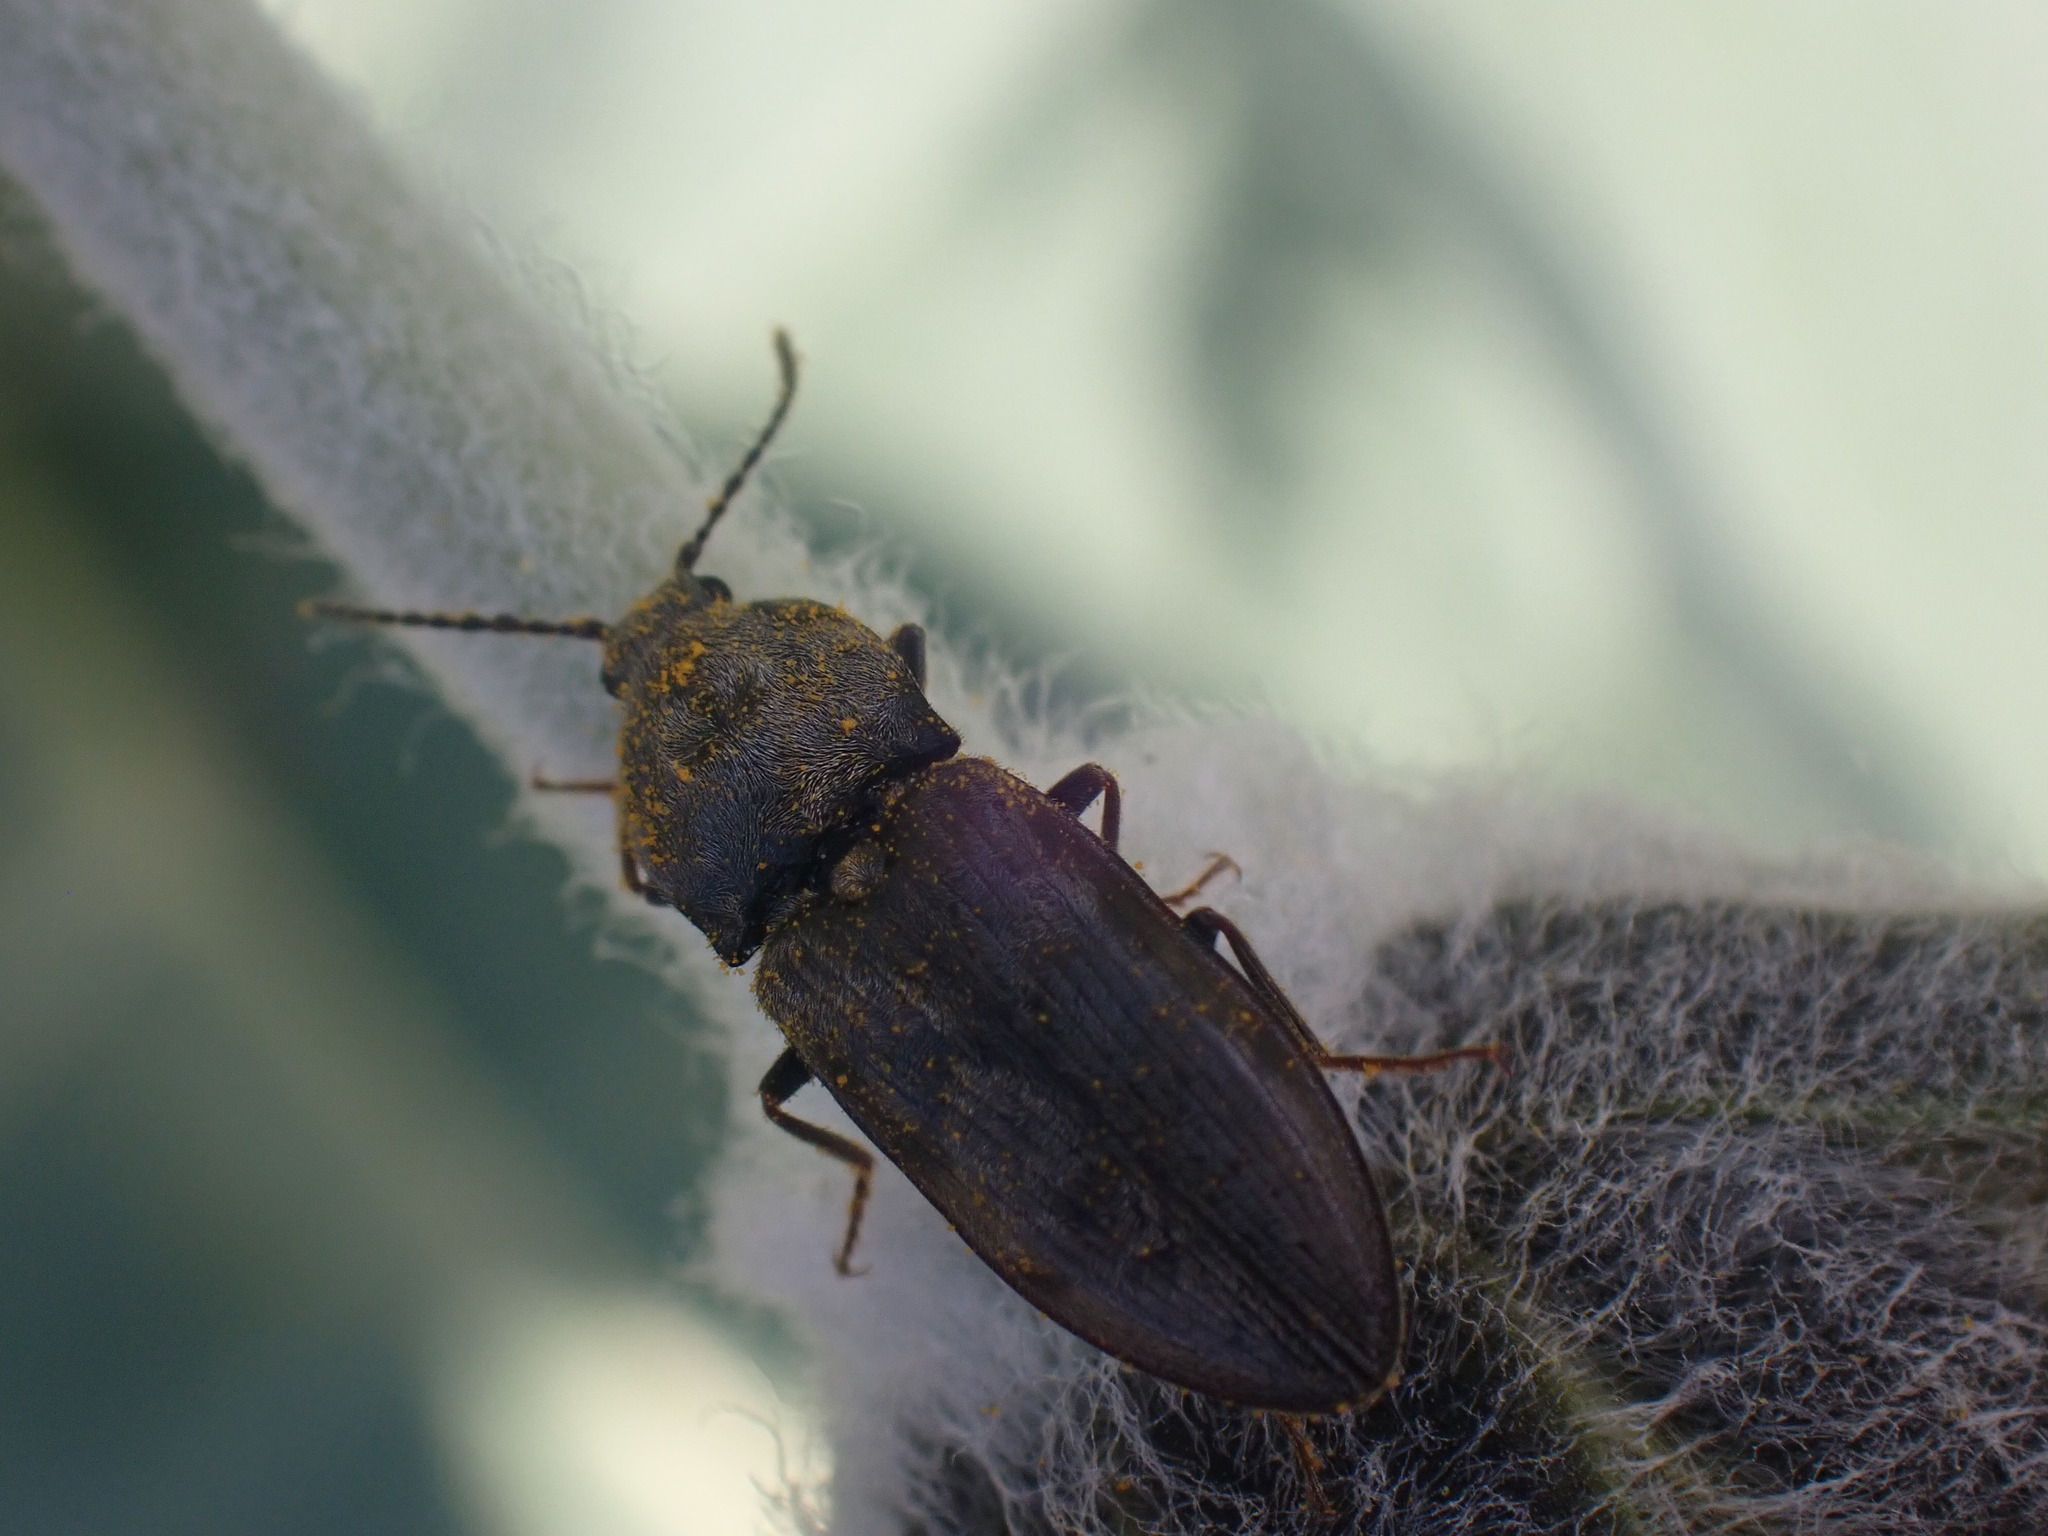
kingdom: Animalia
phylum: Arthropoda
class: Insecta
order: Coleoptera
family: Elateridae
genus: Prosternon
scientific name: Prosternon bombycinum
